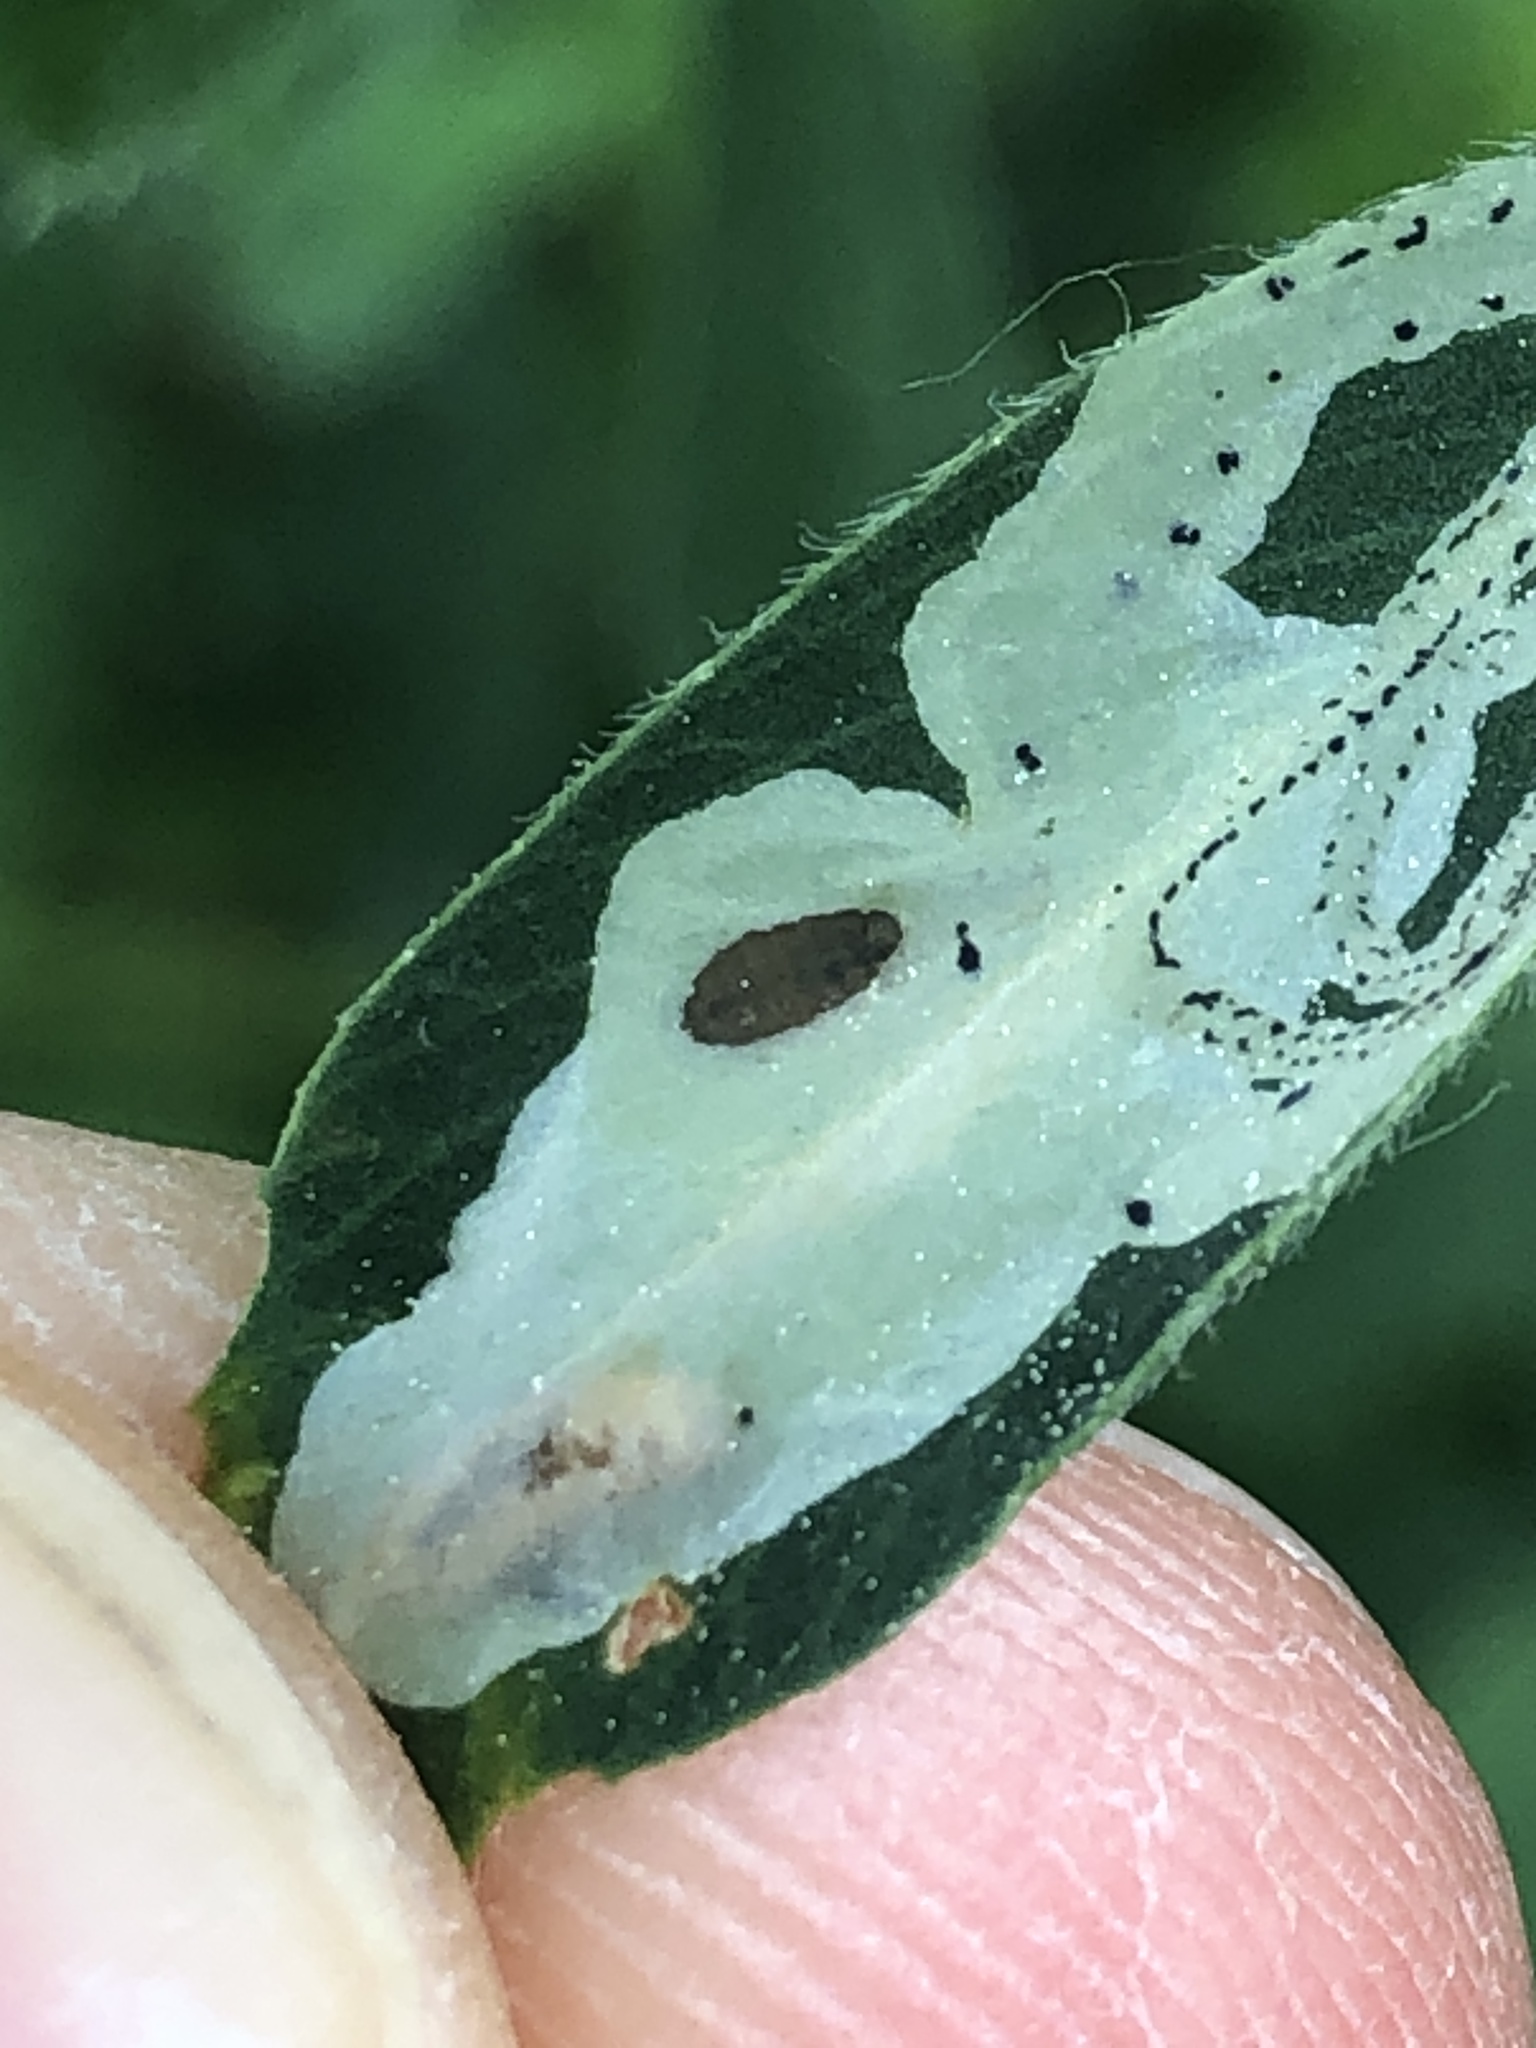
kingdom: Animalia
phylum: Arthropoda
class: Insecta
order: Diptera
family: Agromyzidae
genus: Agromyza
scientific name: Agromyza nana
